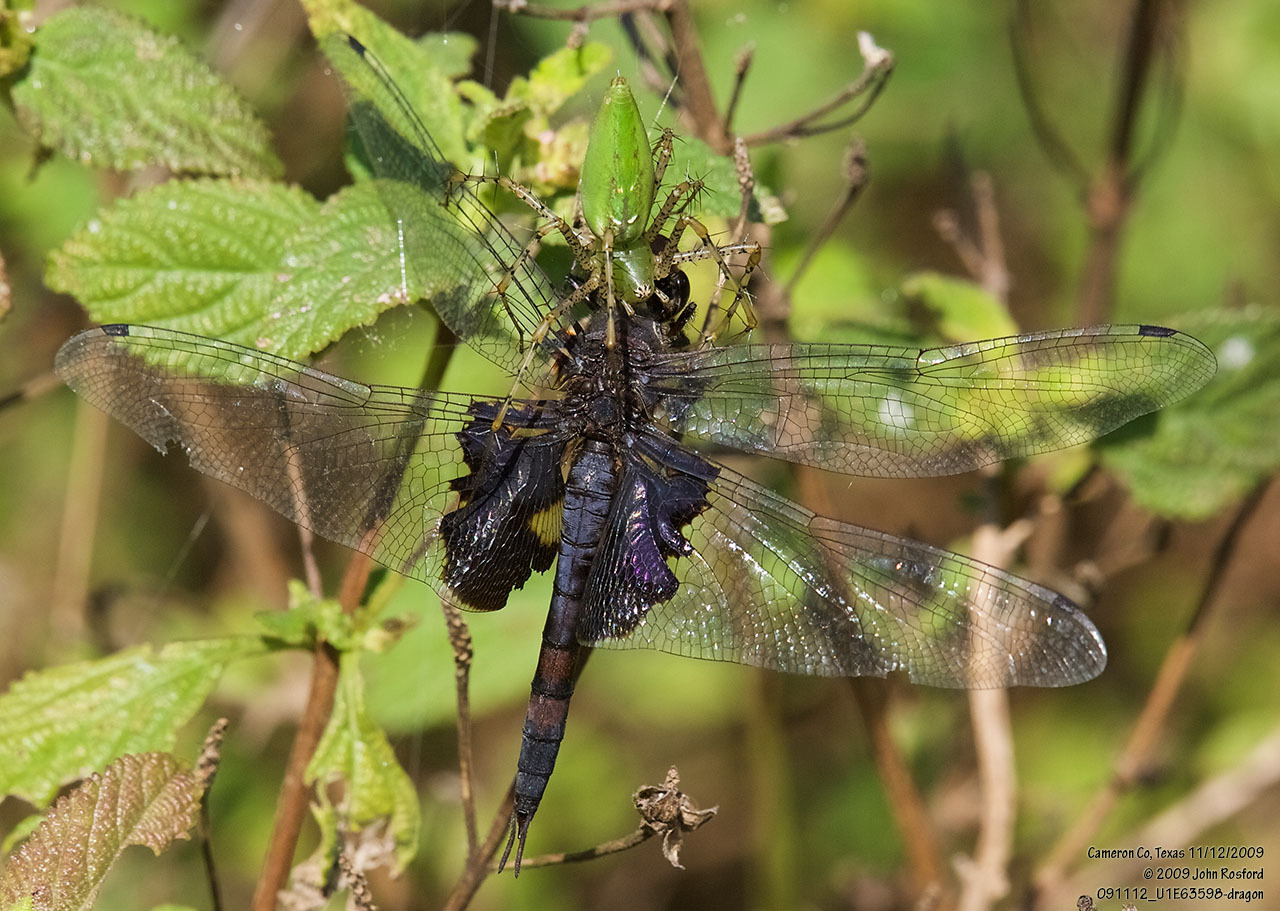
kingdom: Animalia
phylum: Arthropoda
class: Arachnida
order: Araneae
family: Oxyopidae
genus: Peucetia
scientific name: Peucetia viridans
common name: Lynx spiders
